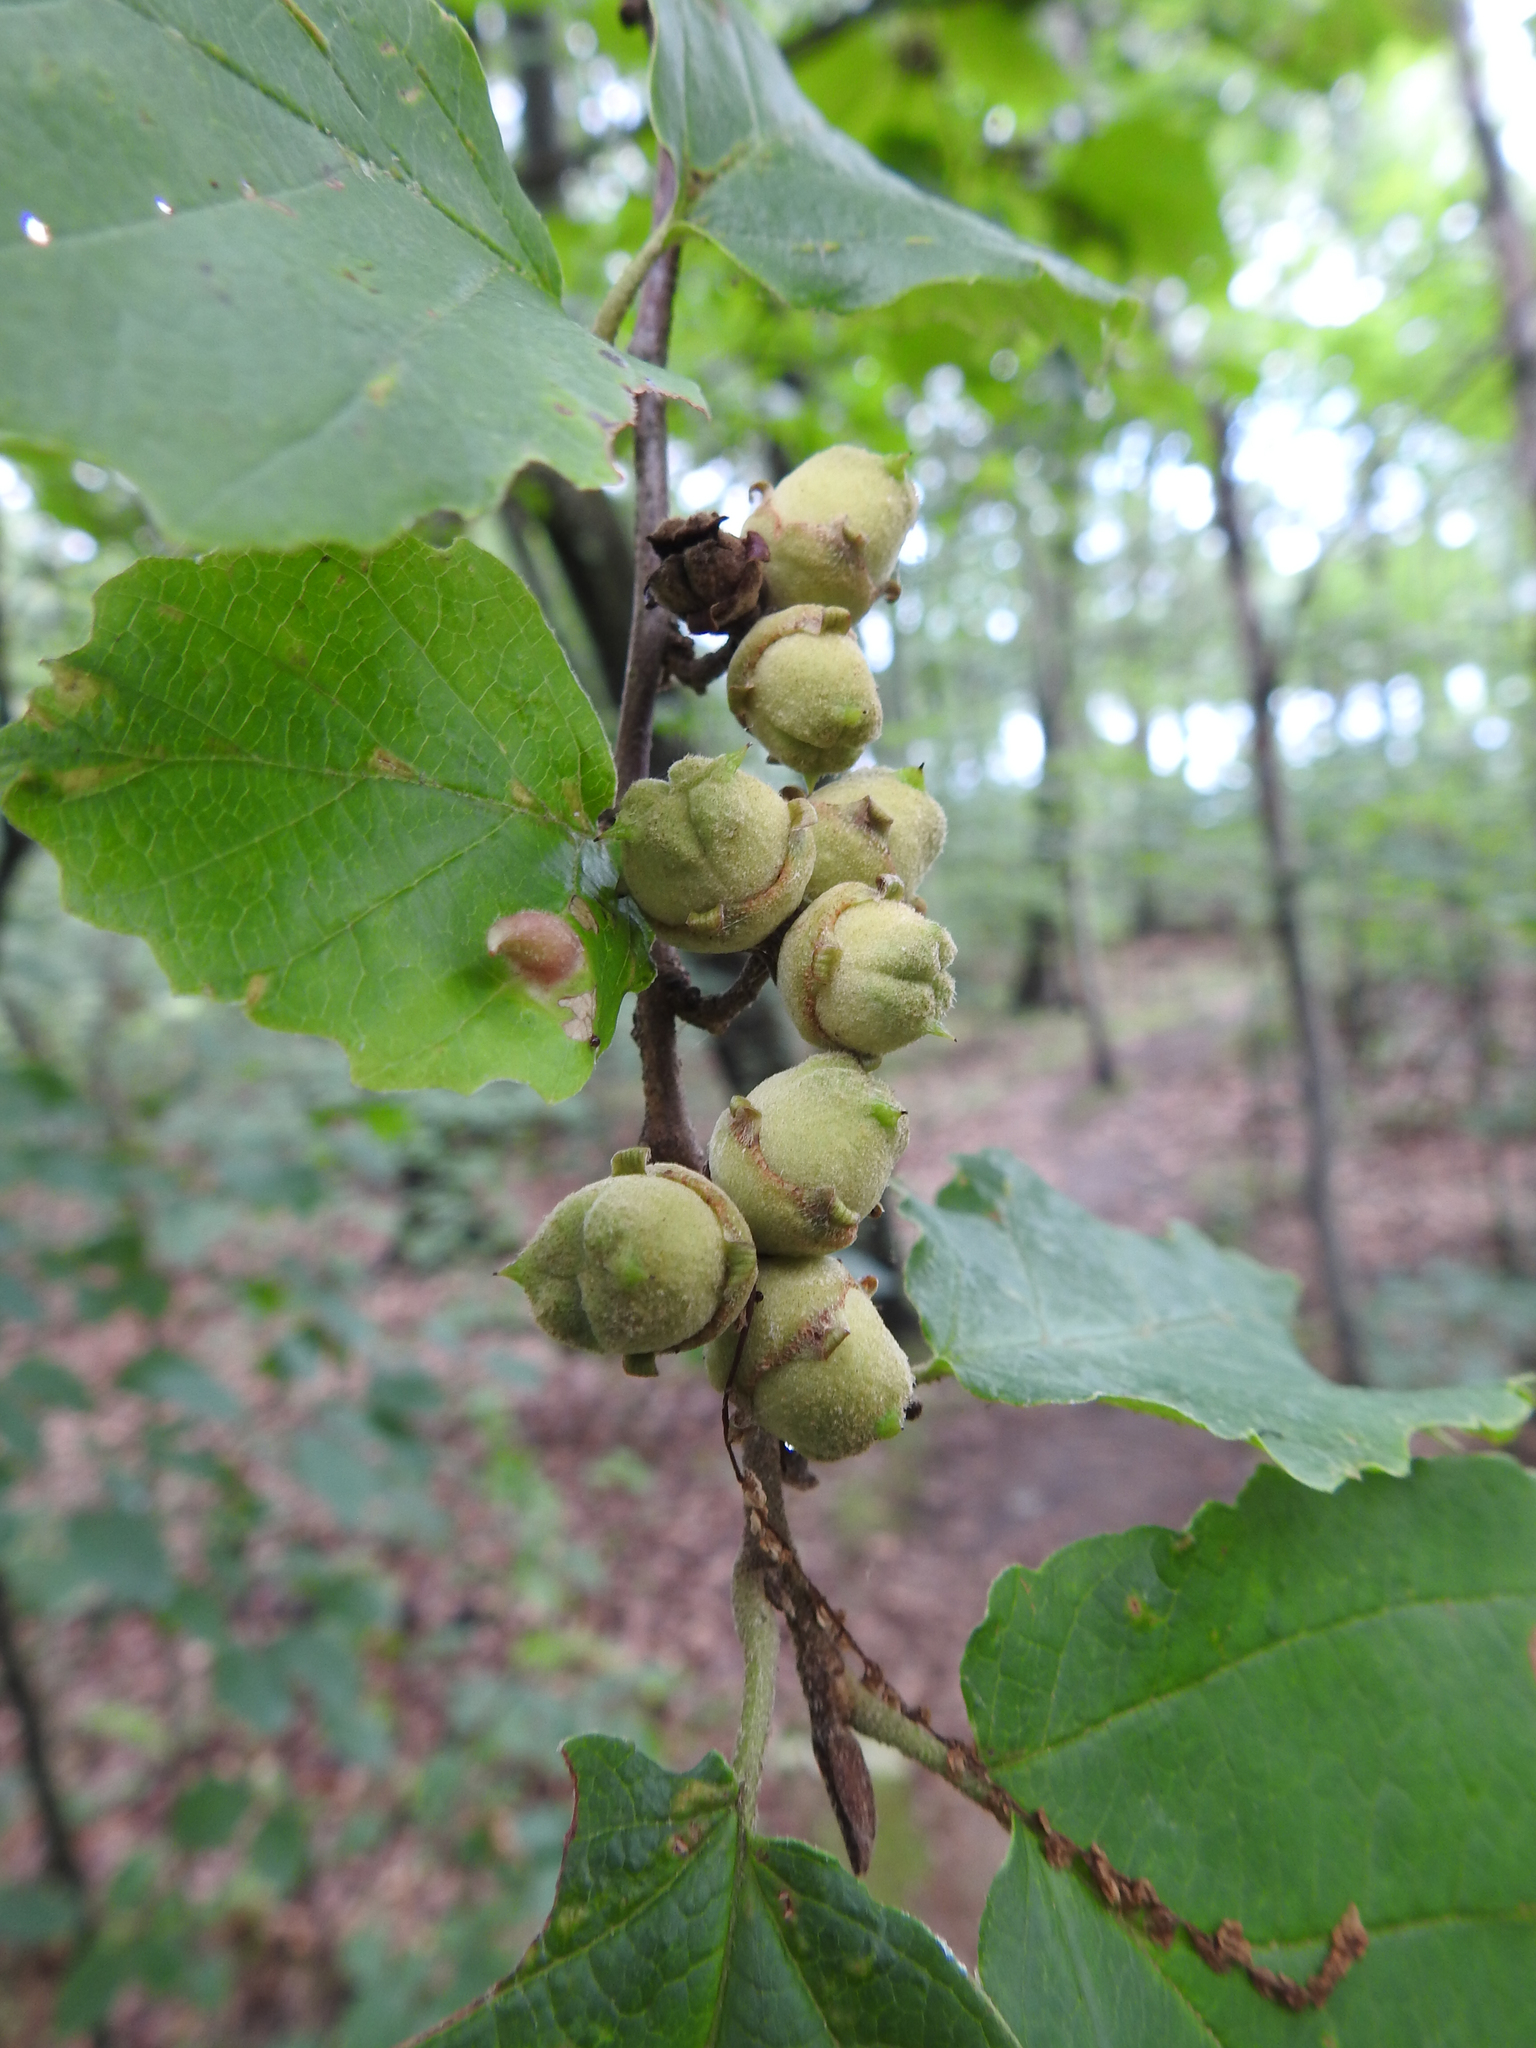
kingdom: Plantae
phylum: Tracheophyta
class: Magnoliopsida
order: Saxifragales
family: Hamamelidaceae
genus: Hamamelis
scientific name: Hamamelis virginiana
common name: Witch-hazel
